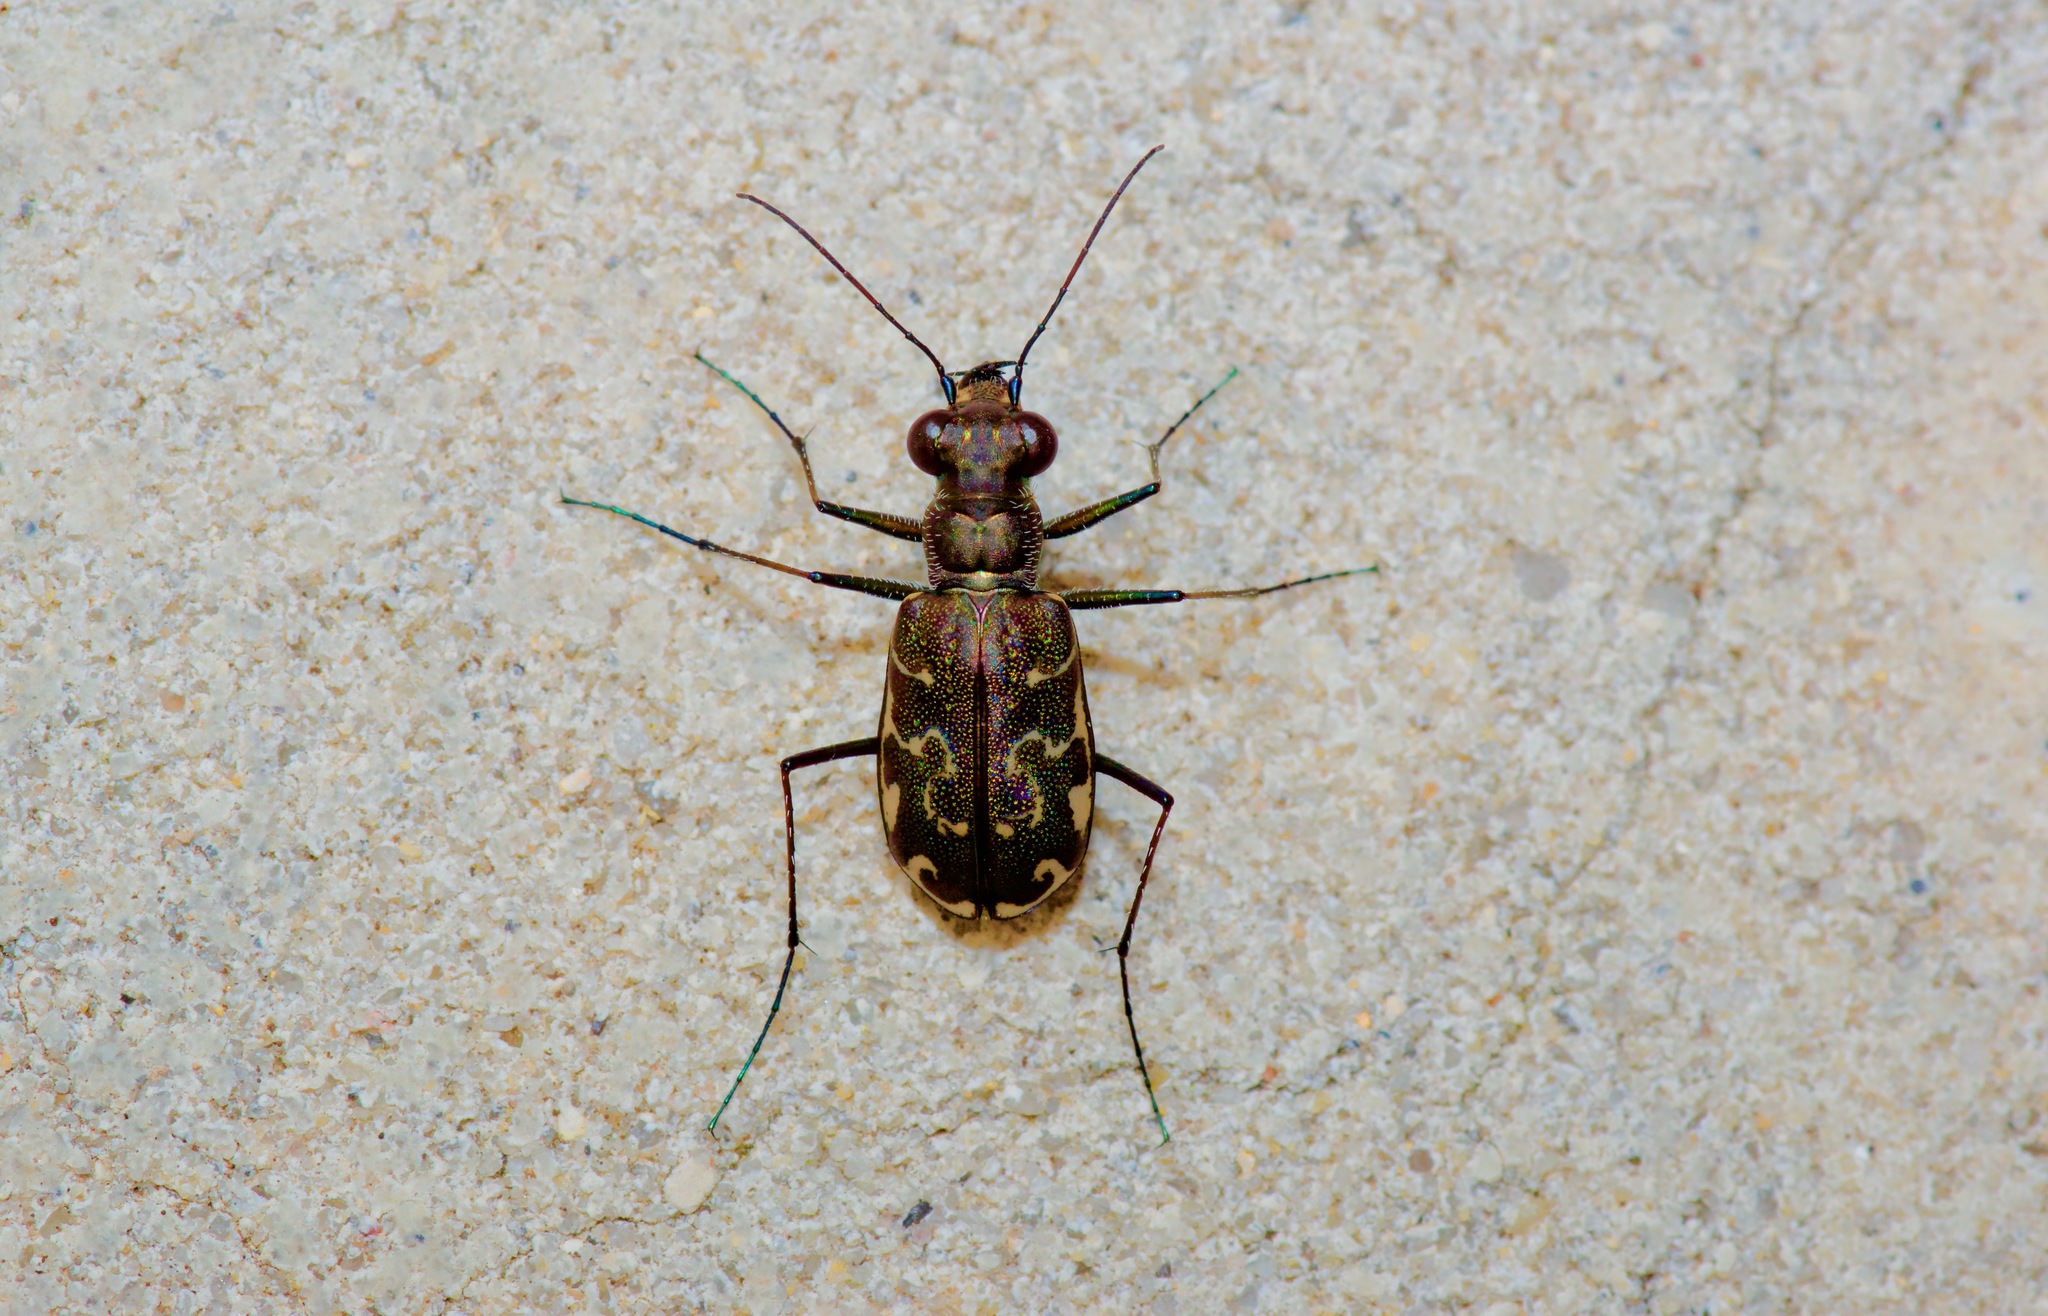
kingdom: Animalia
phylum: Arthropoda
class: Insecta
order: Coleoptera
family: Carabidae
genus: Cicindela
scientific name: Cicindela trifasciata
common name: Mudflat tiger beetle
